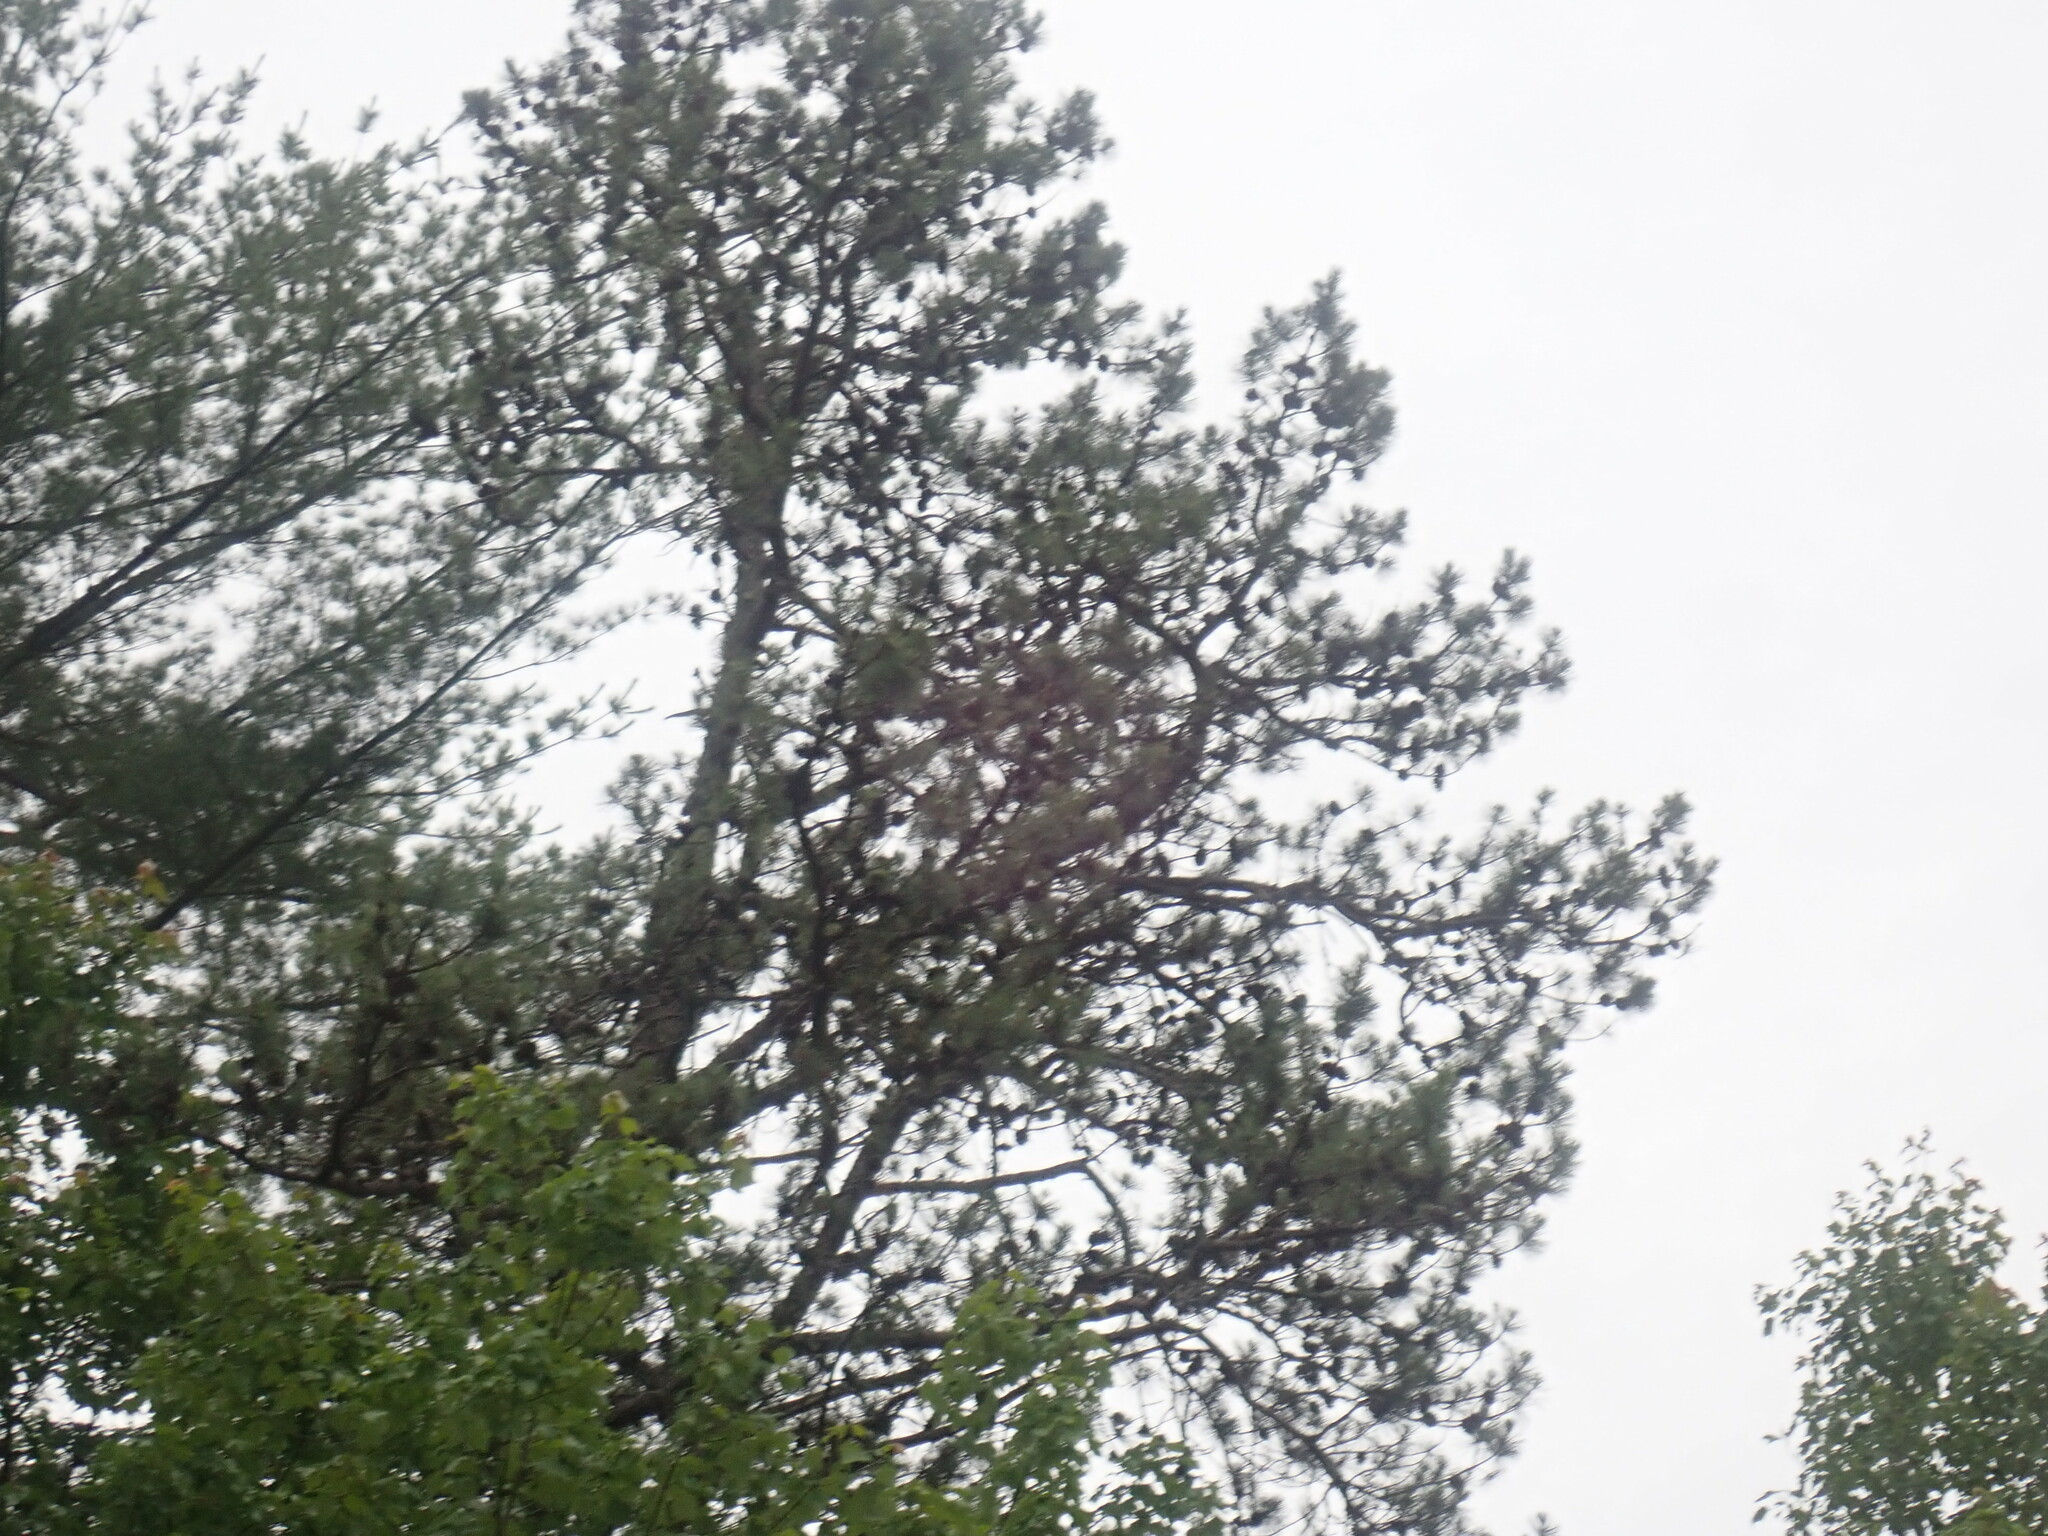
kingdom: Plantae
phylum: Tracheophyta
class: Pinopsida
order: Pinales
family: Pinaceae
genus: Pinus
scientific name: Pinus rigida
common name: Pitch pine
